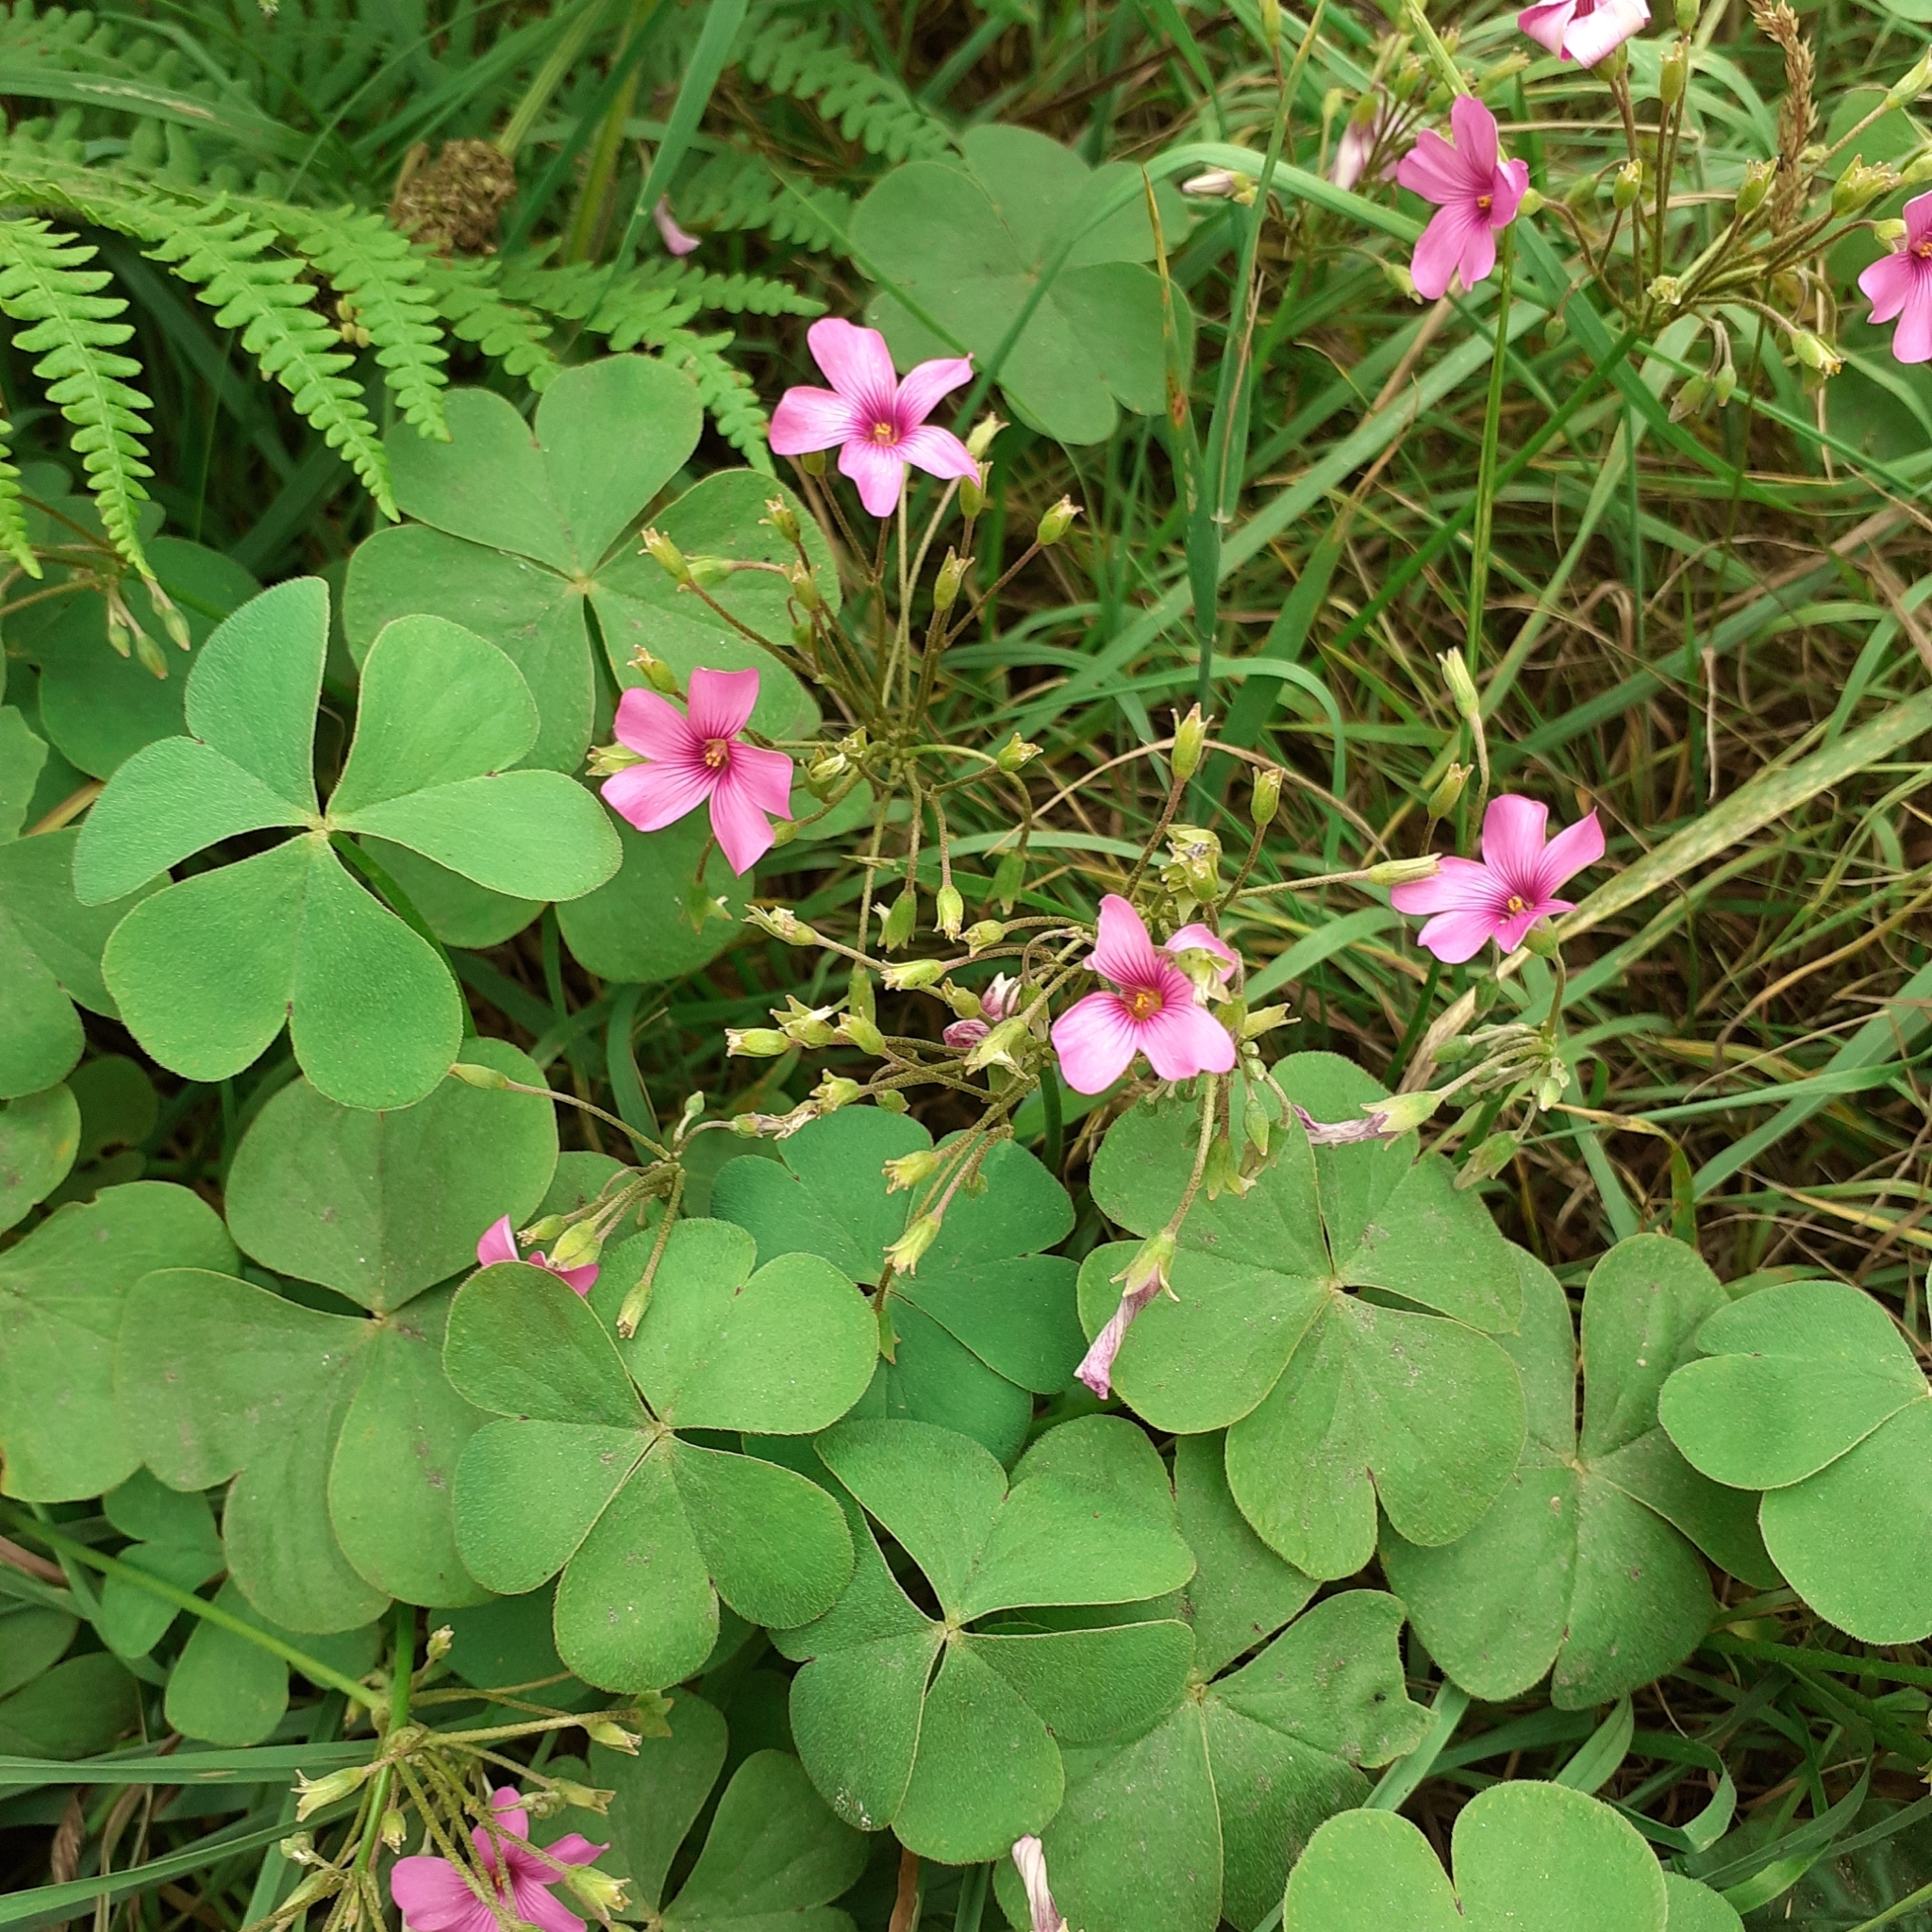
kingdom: Plantae
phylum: Tracheophyta
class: Magnoliopsida
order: Oxalidales
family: Oxalidaceae
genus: Oxalis
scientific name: Oxalis articulata
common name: Pink-sorrel
